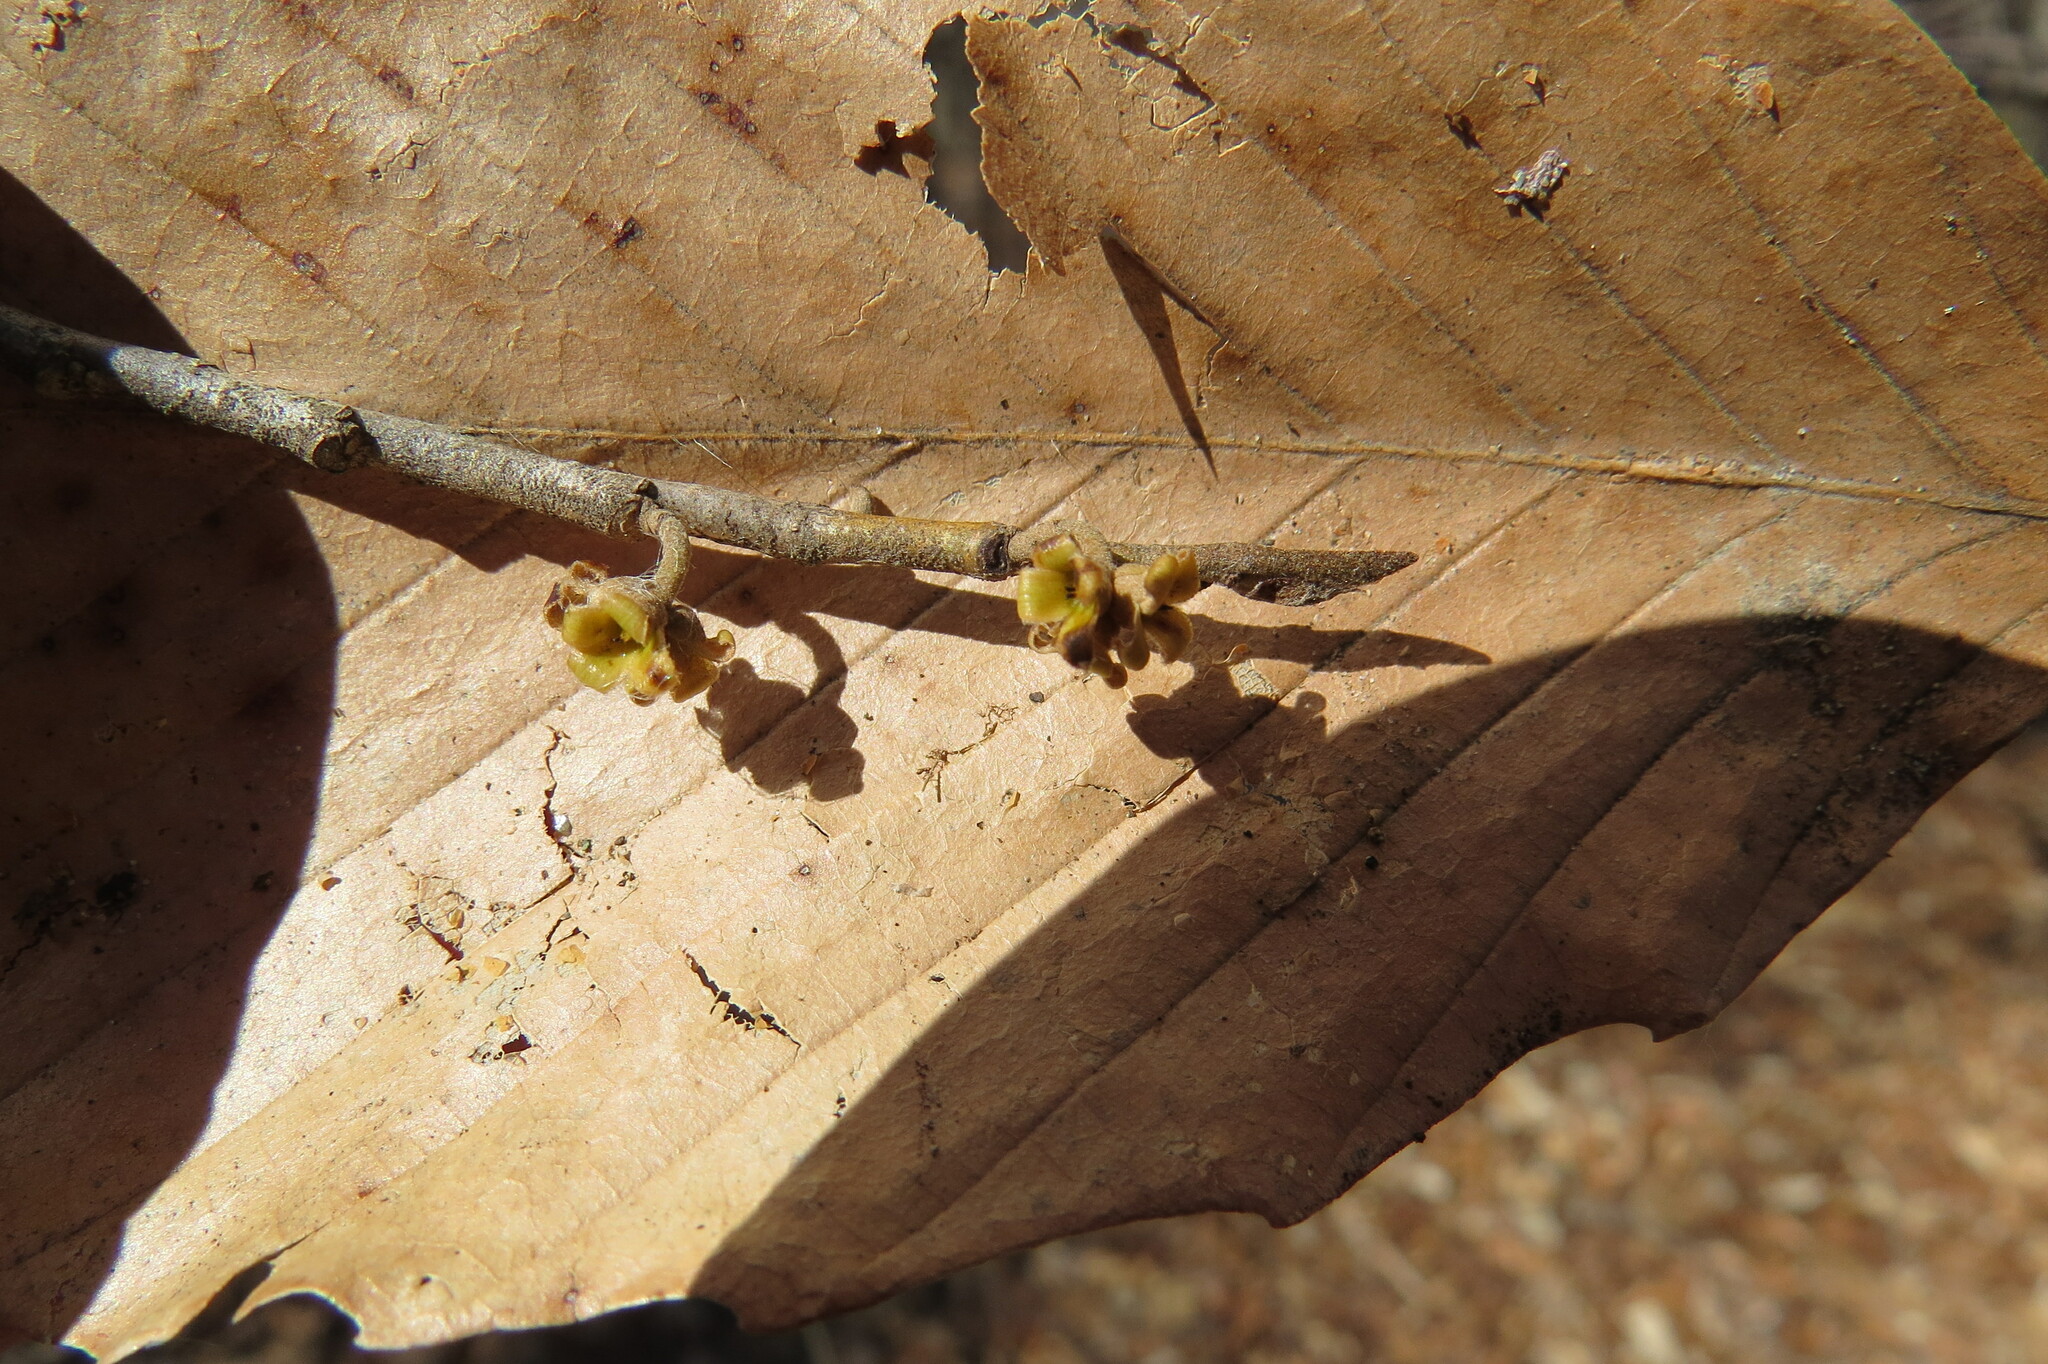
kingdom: Plantae
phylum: Tracheophyta
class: Magnoliopsida
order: Saxifragales
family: Hamamelidaceae
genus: Hamamelis
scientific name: Hamamelis virginiana
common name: Witch-hazel
